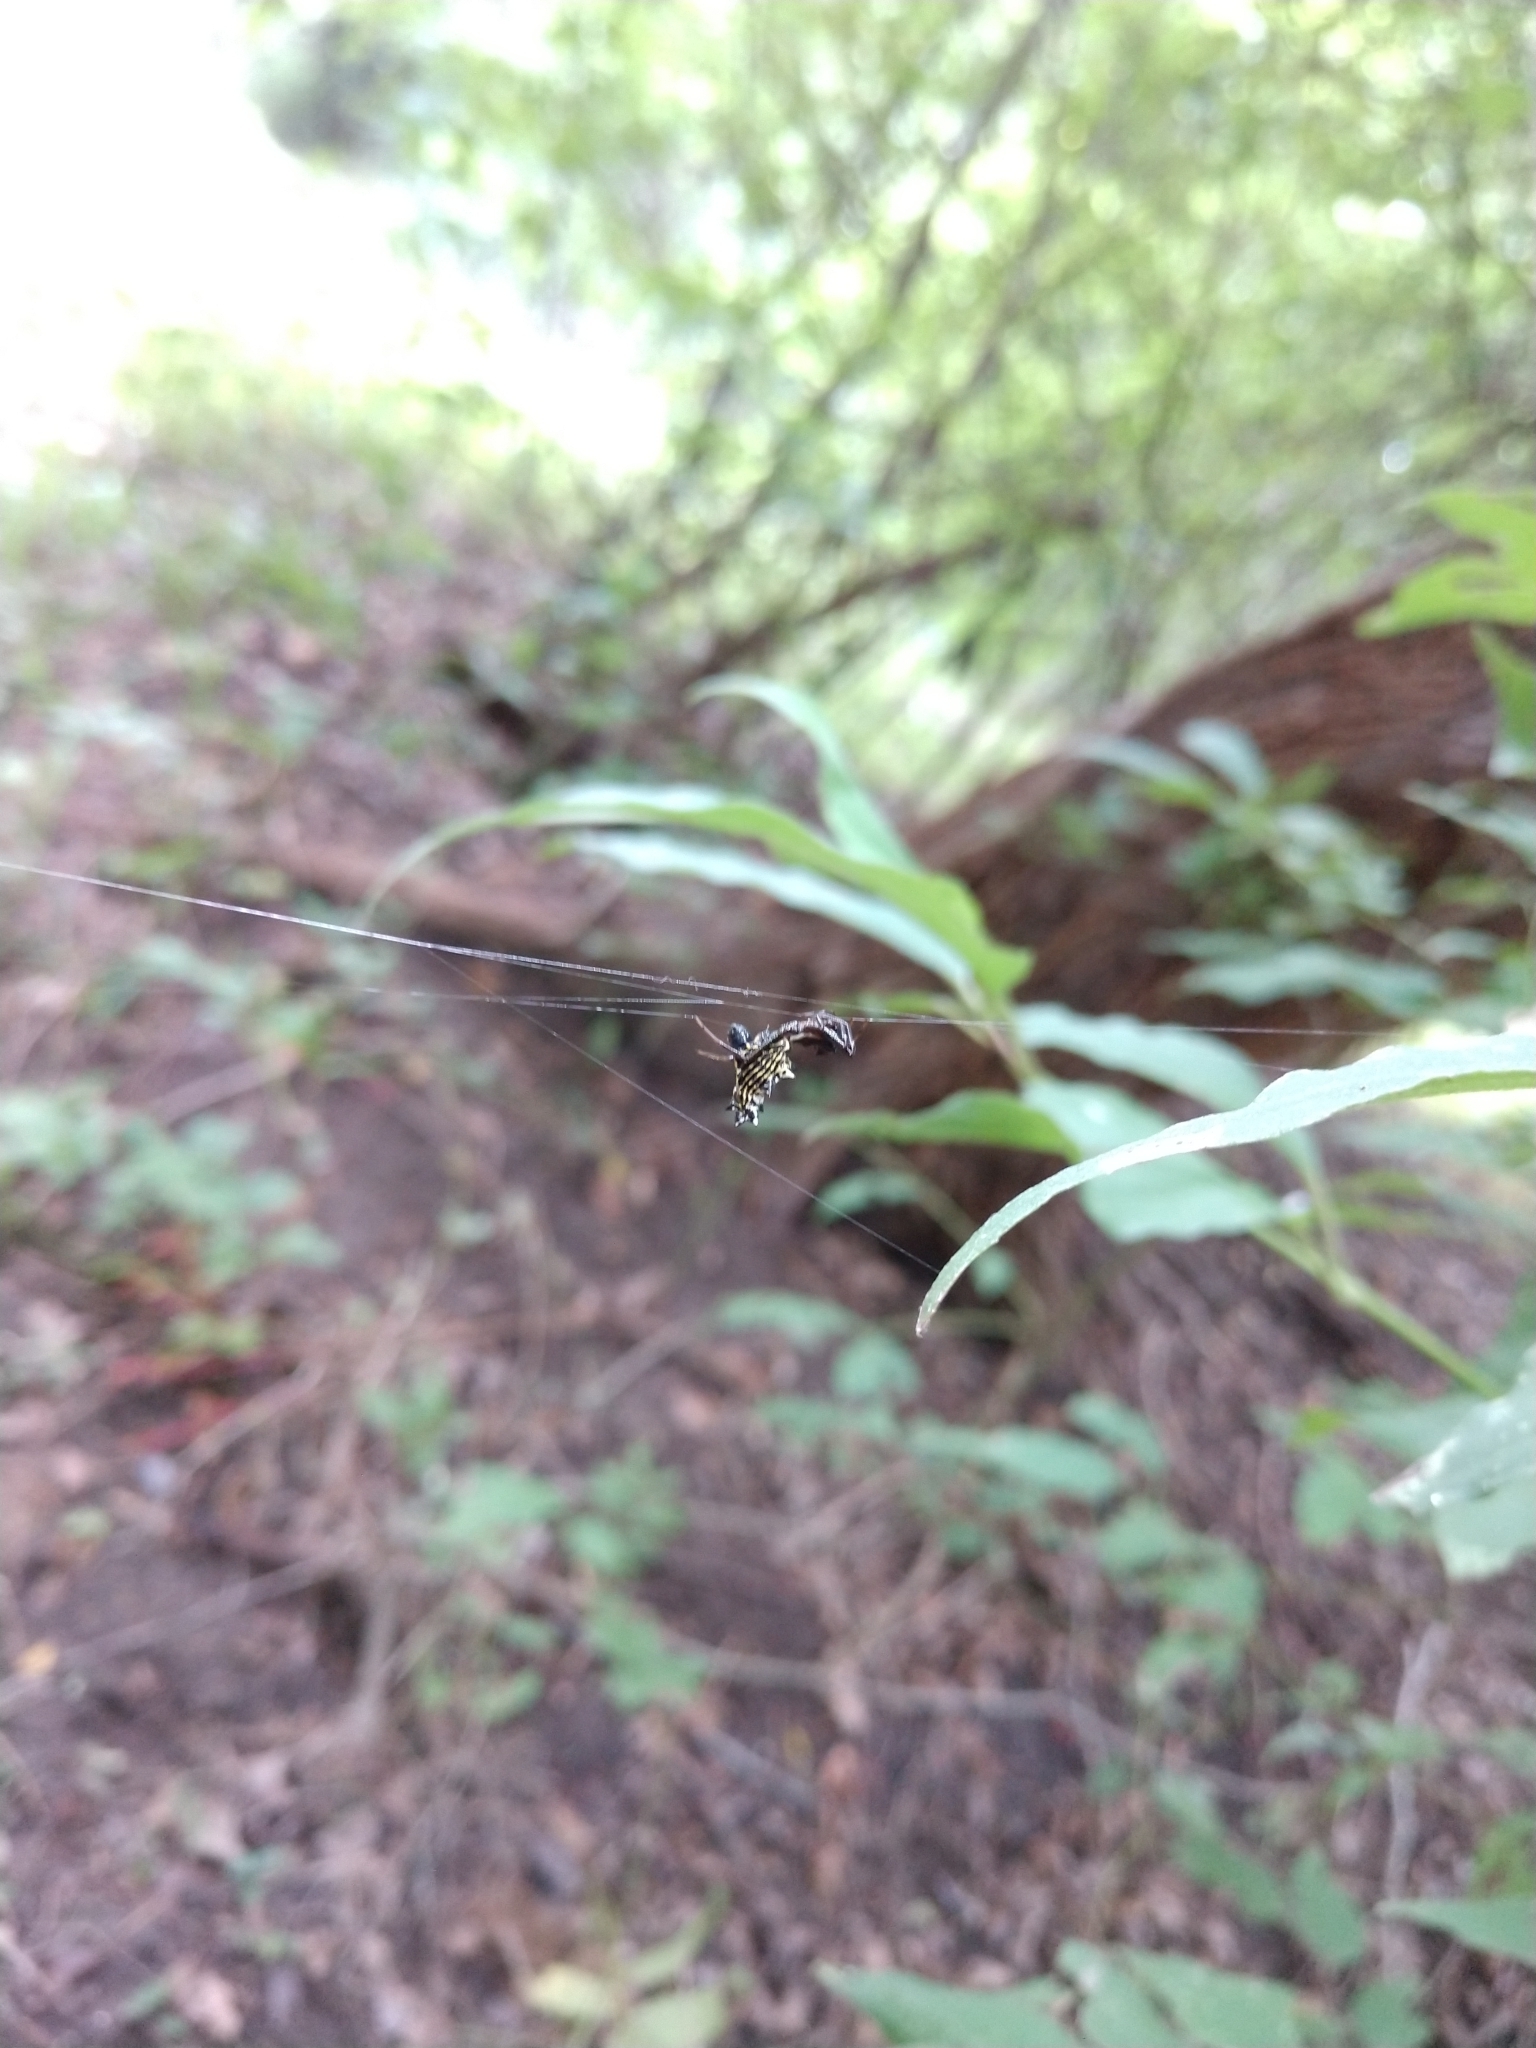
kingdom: Animalia
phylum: Arthropoda
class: Arachnida
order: Araneae
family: Araneidae
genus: Micrathena
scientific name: Micrathena gracilis
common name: Orb weavers
